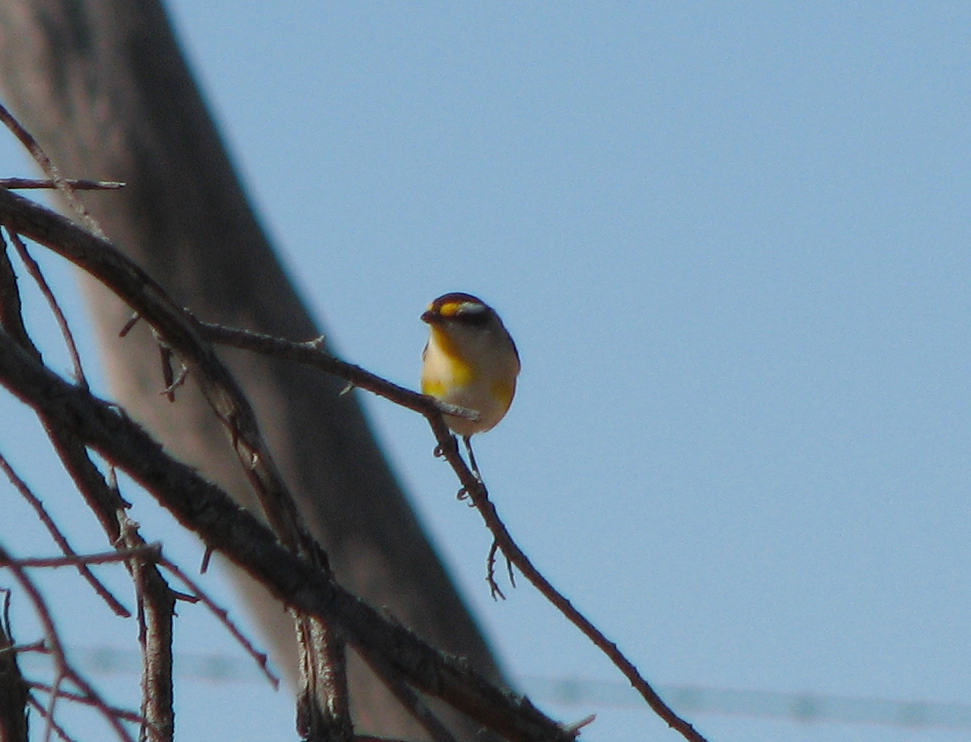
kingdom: Animalia
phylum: Chordata
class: Aves
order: Passeriformes
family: Pardalotidae
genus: Pardalotus
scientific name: Pardalotus striatus
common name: Striated pardalote
